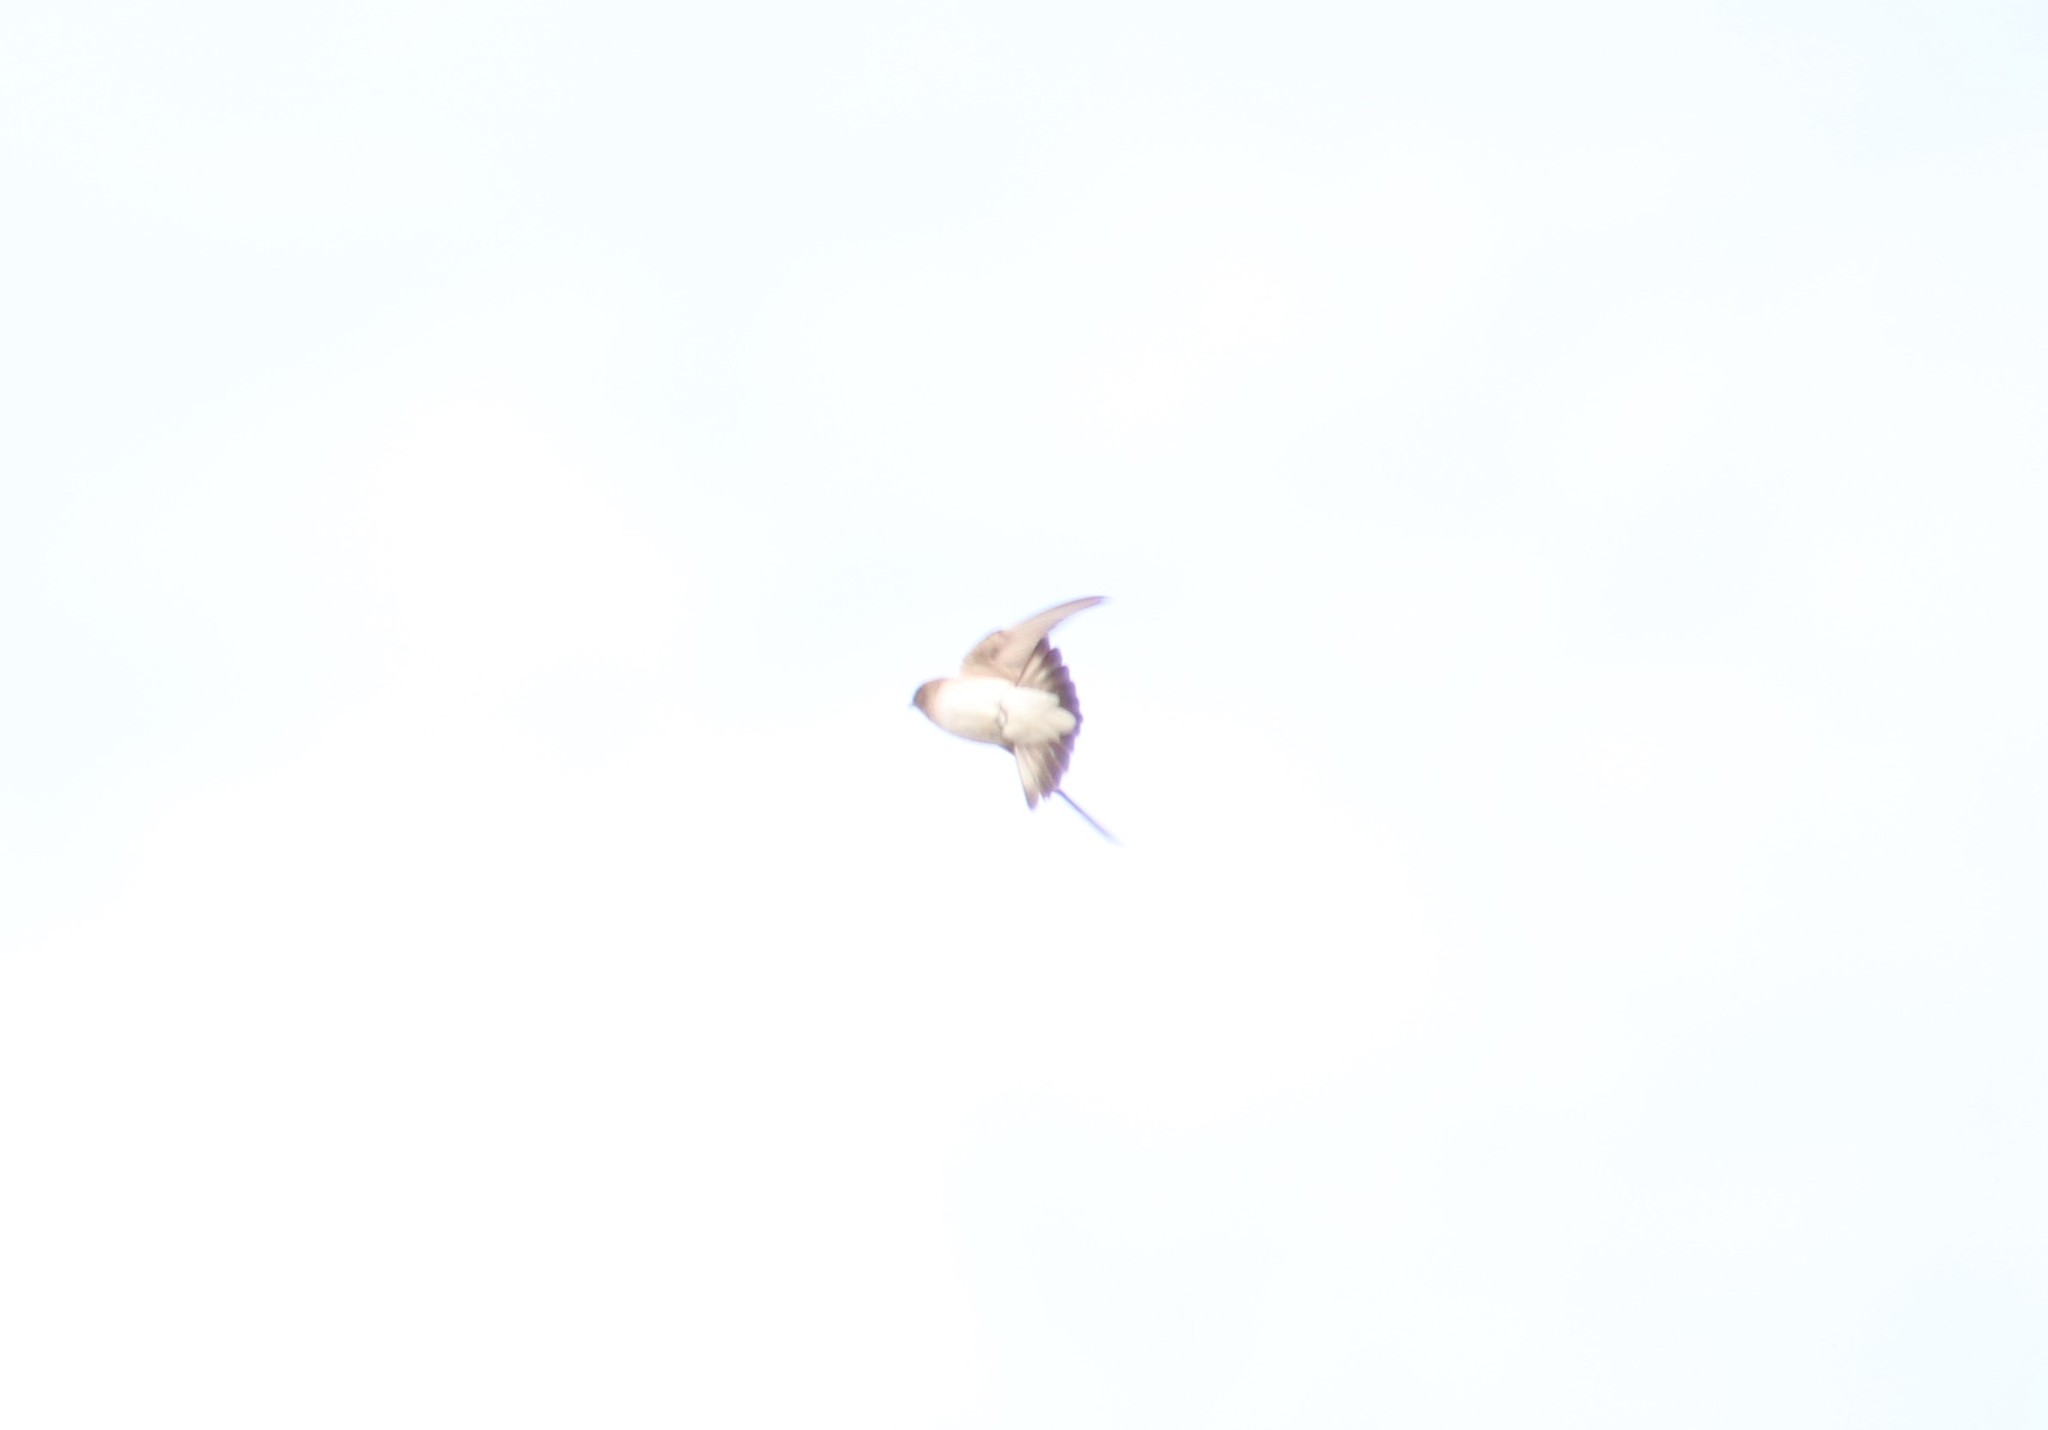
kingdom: Animalia
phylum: Chordata
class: Aves
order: Passeriformes
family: Hirundinidae
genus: Stelgidopteryx
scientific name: Stelgidopteryx serripennis
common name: Northern rough-winged swallow
